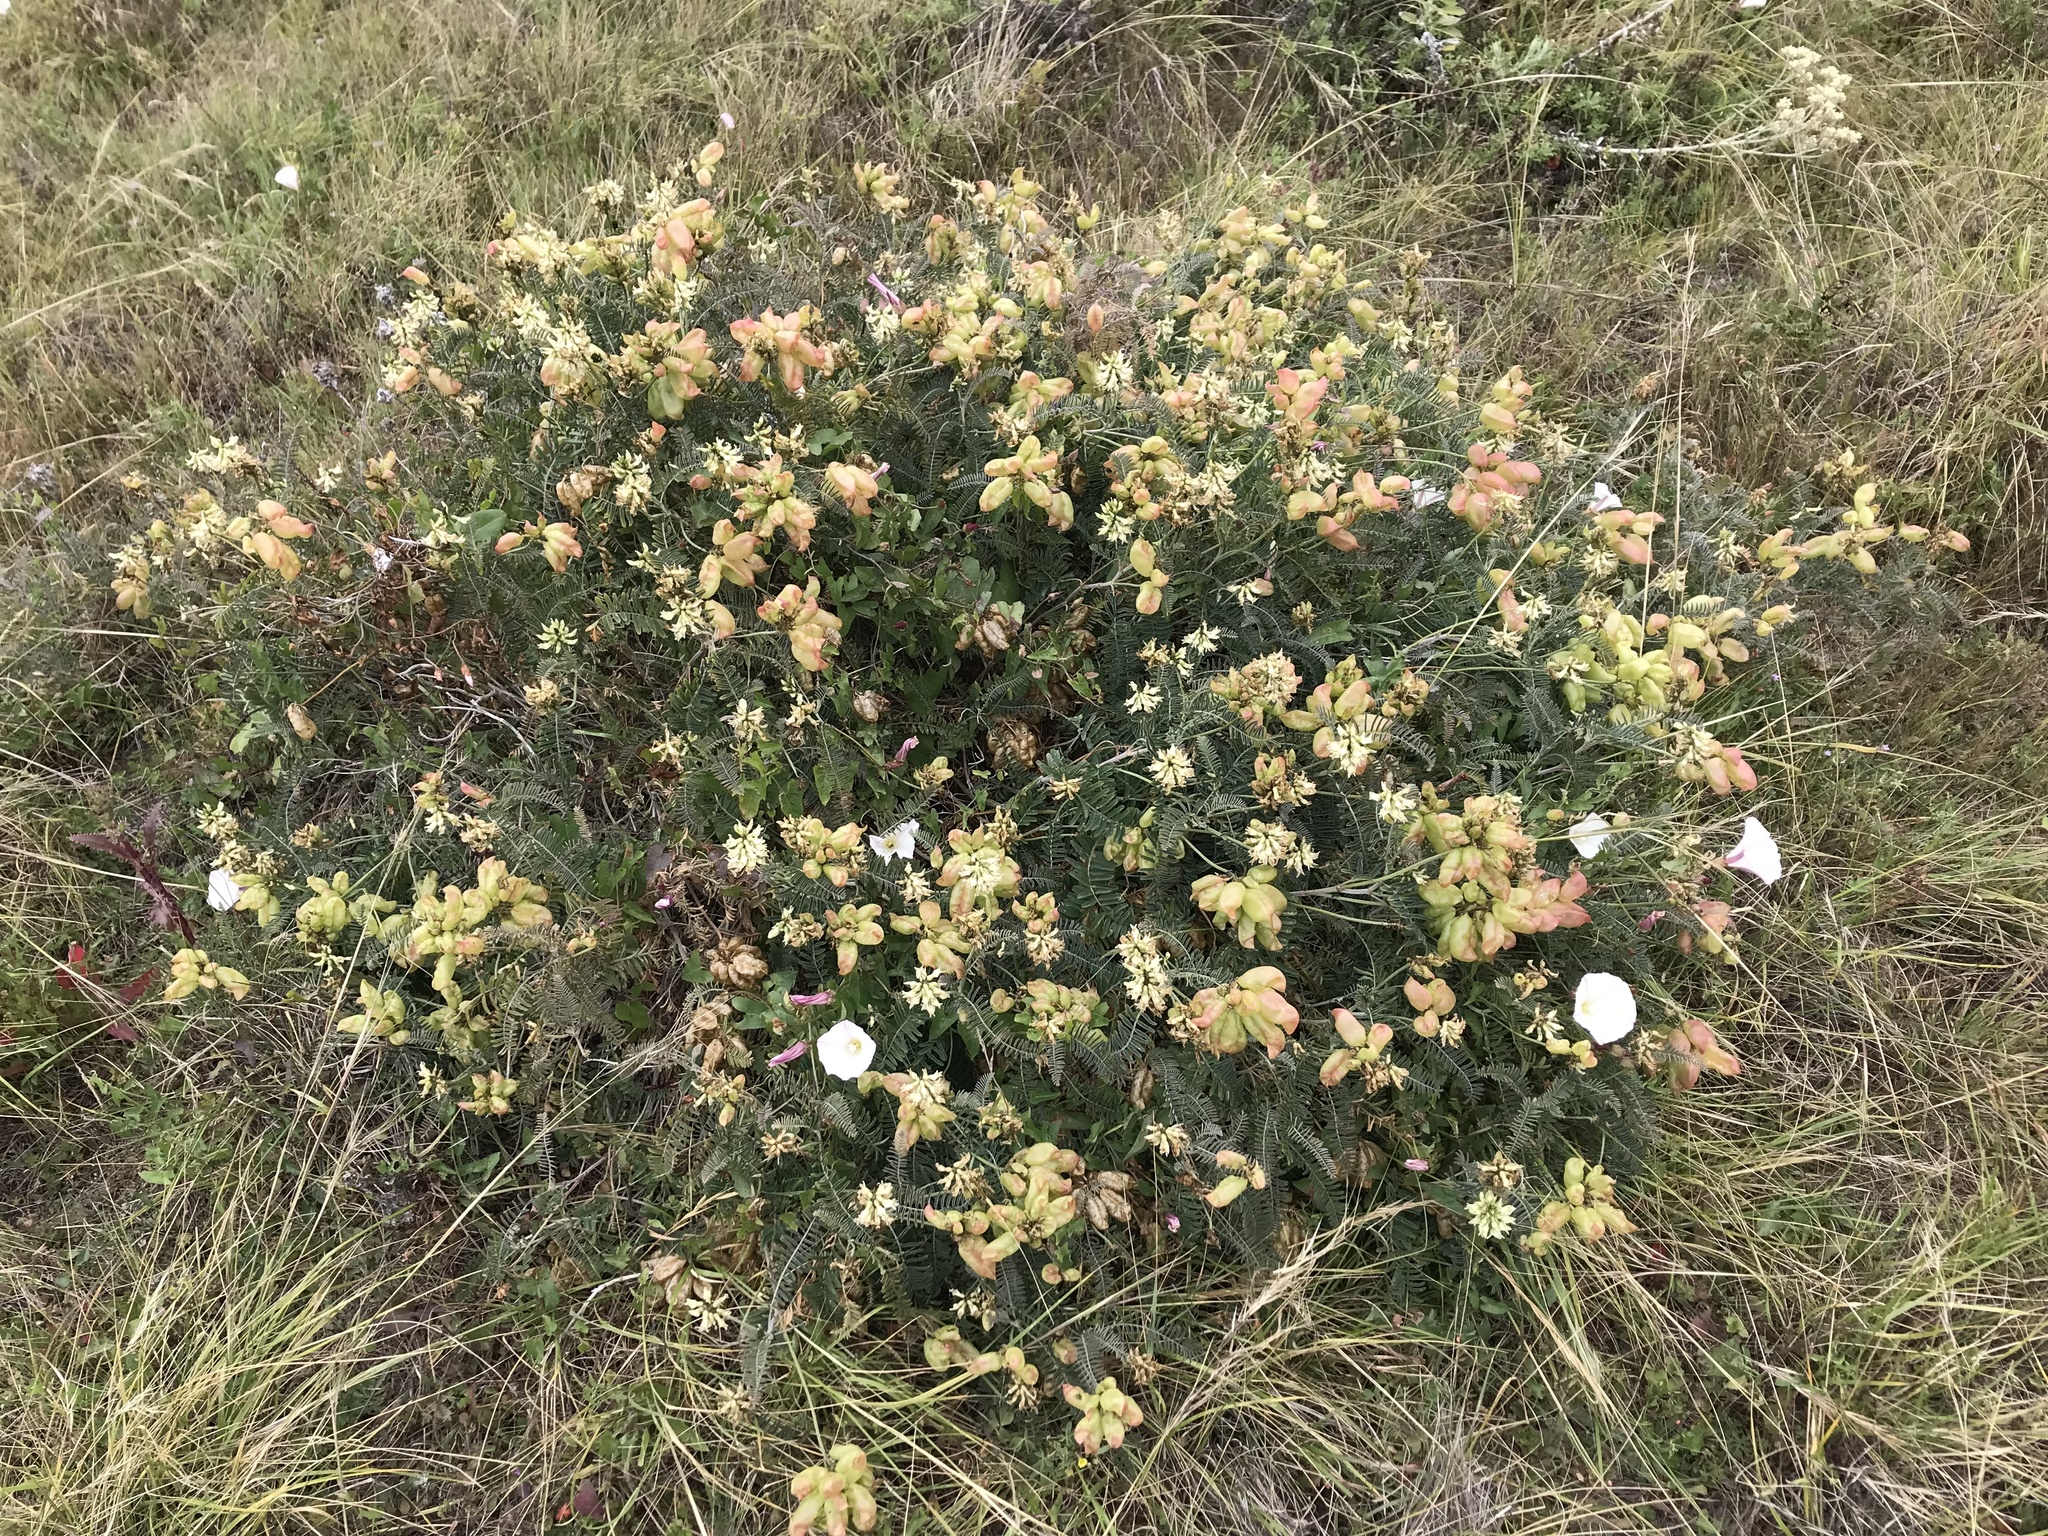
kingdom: Plantae
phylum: Tracheophyta
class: Magnoliopsida
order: Fabales
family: Fabaceae
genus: Astragalus
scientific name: Astragalus nuttallii
